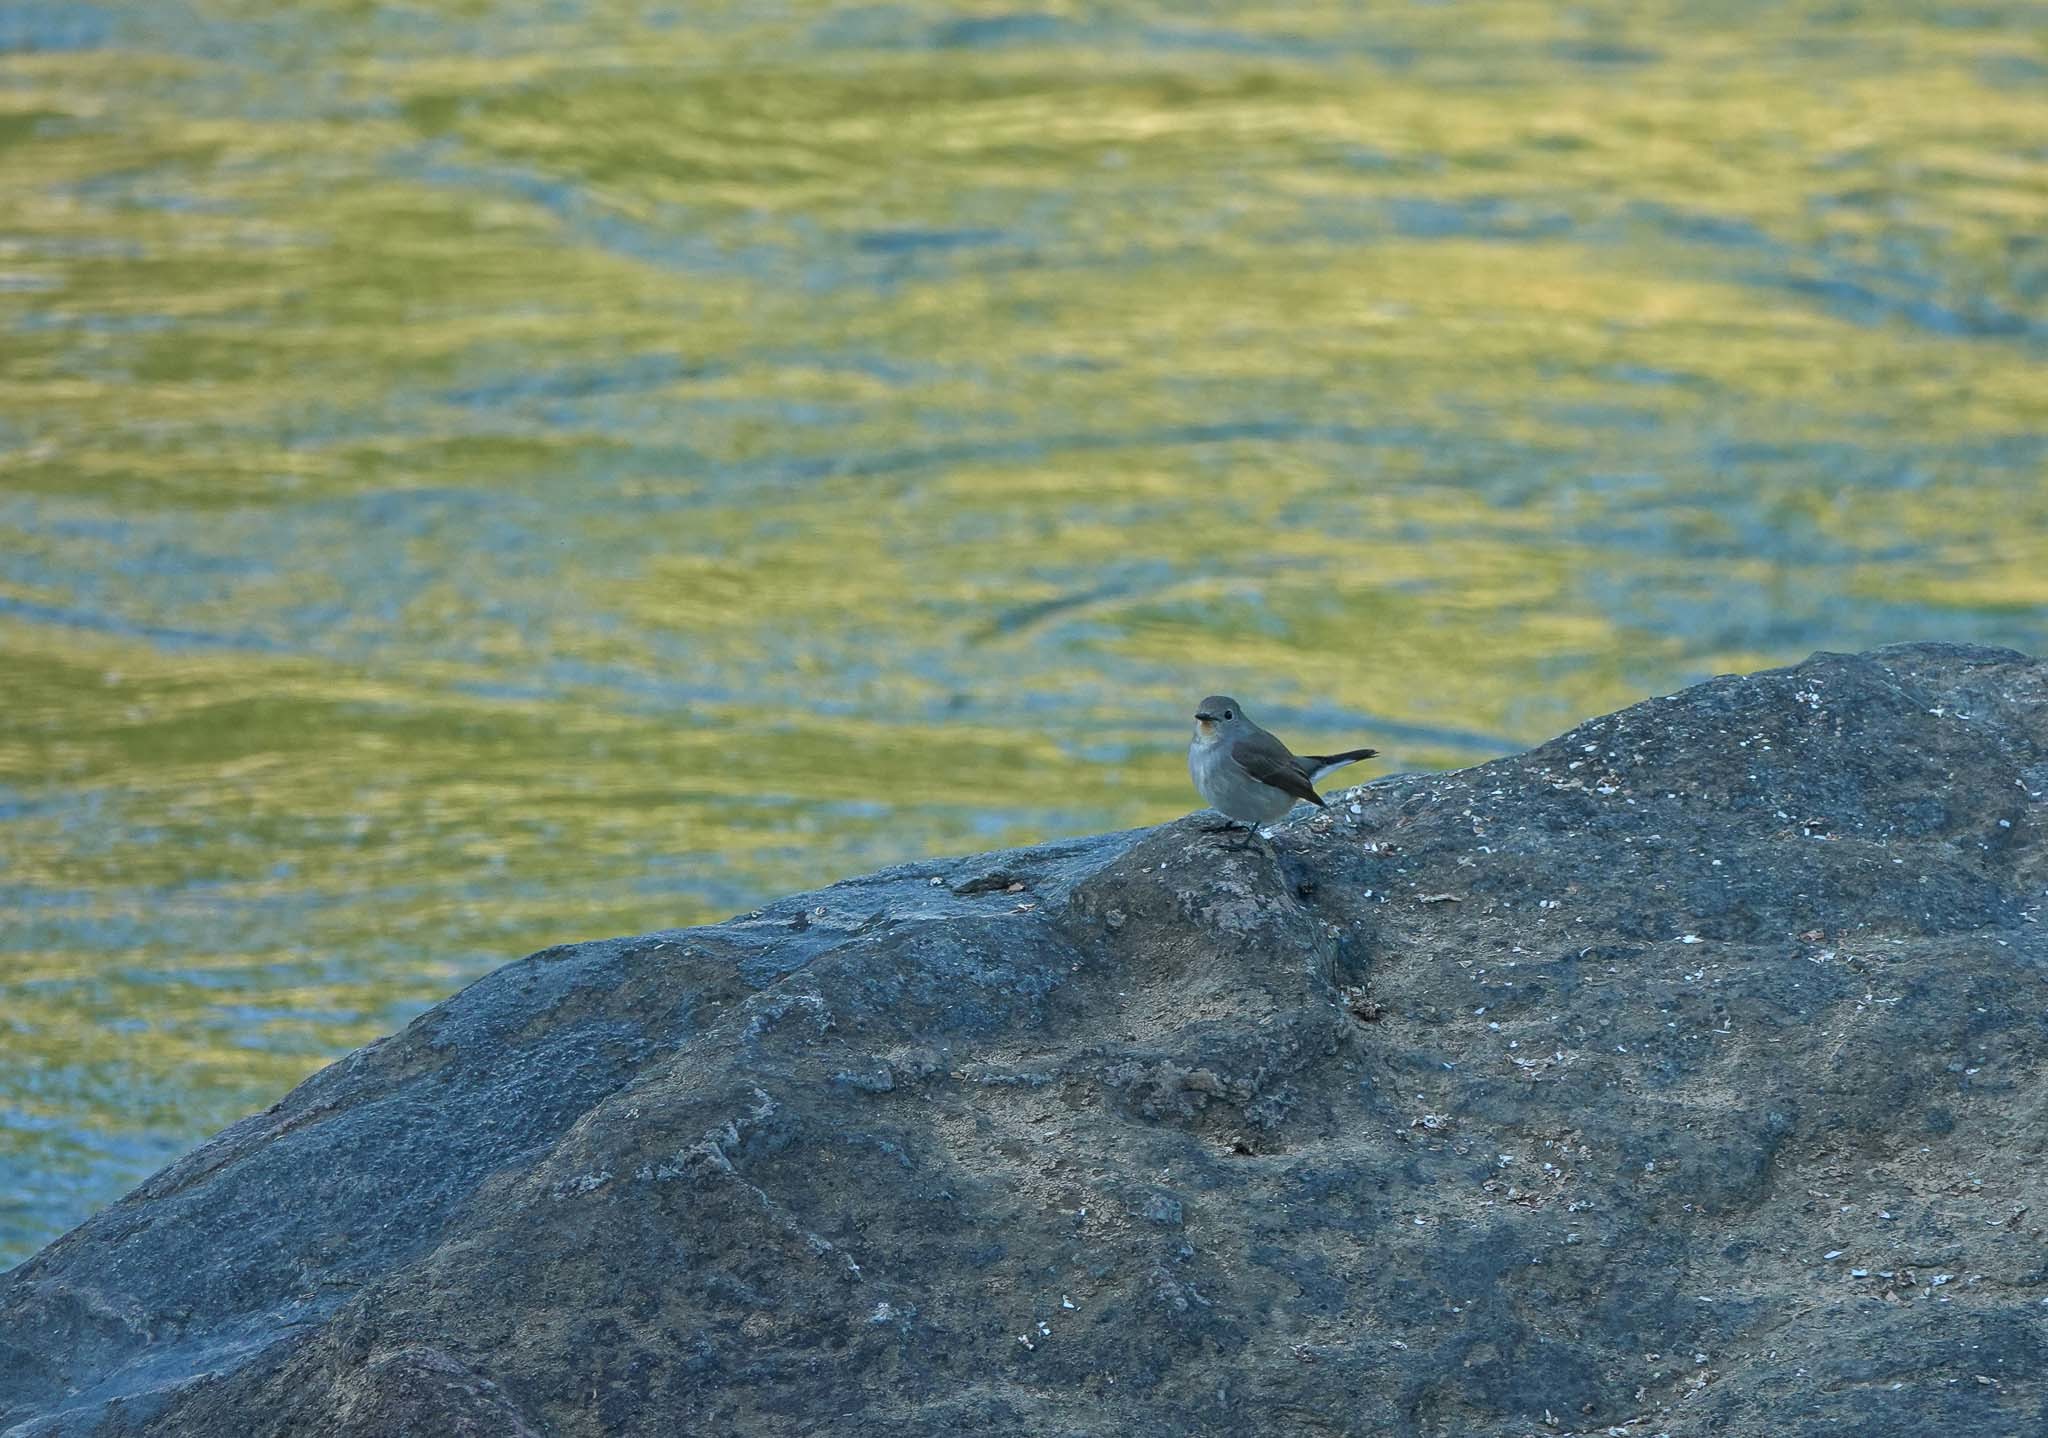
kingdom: Animalia
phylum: Chordata
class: Aves
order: Passeriformes
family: Muscicapidae
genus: Ficedula
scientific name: Ficedula albicilla
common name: Taiga flycatcher
